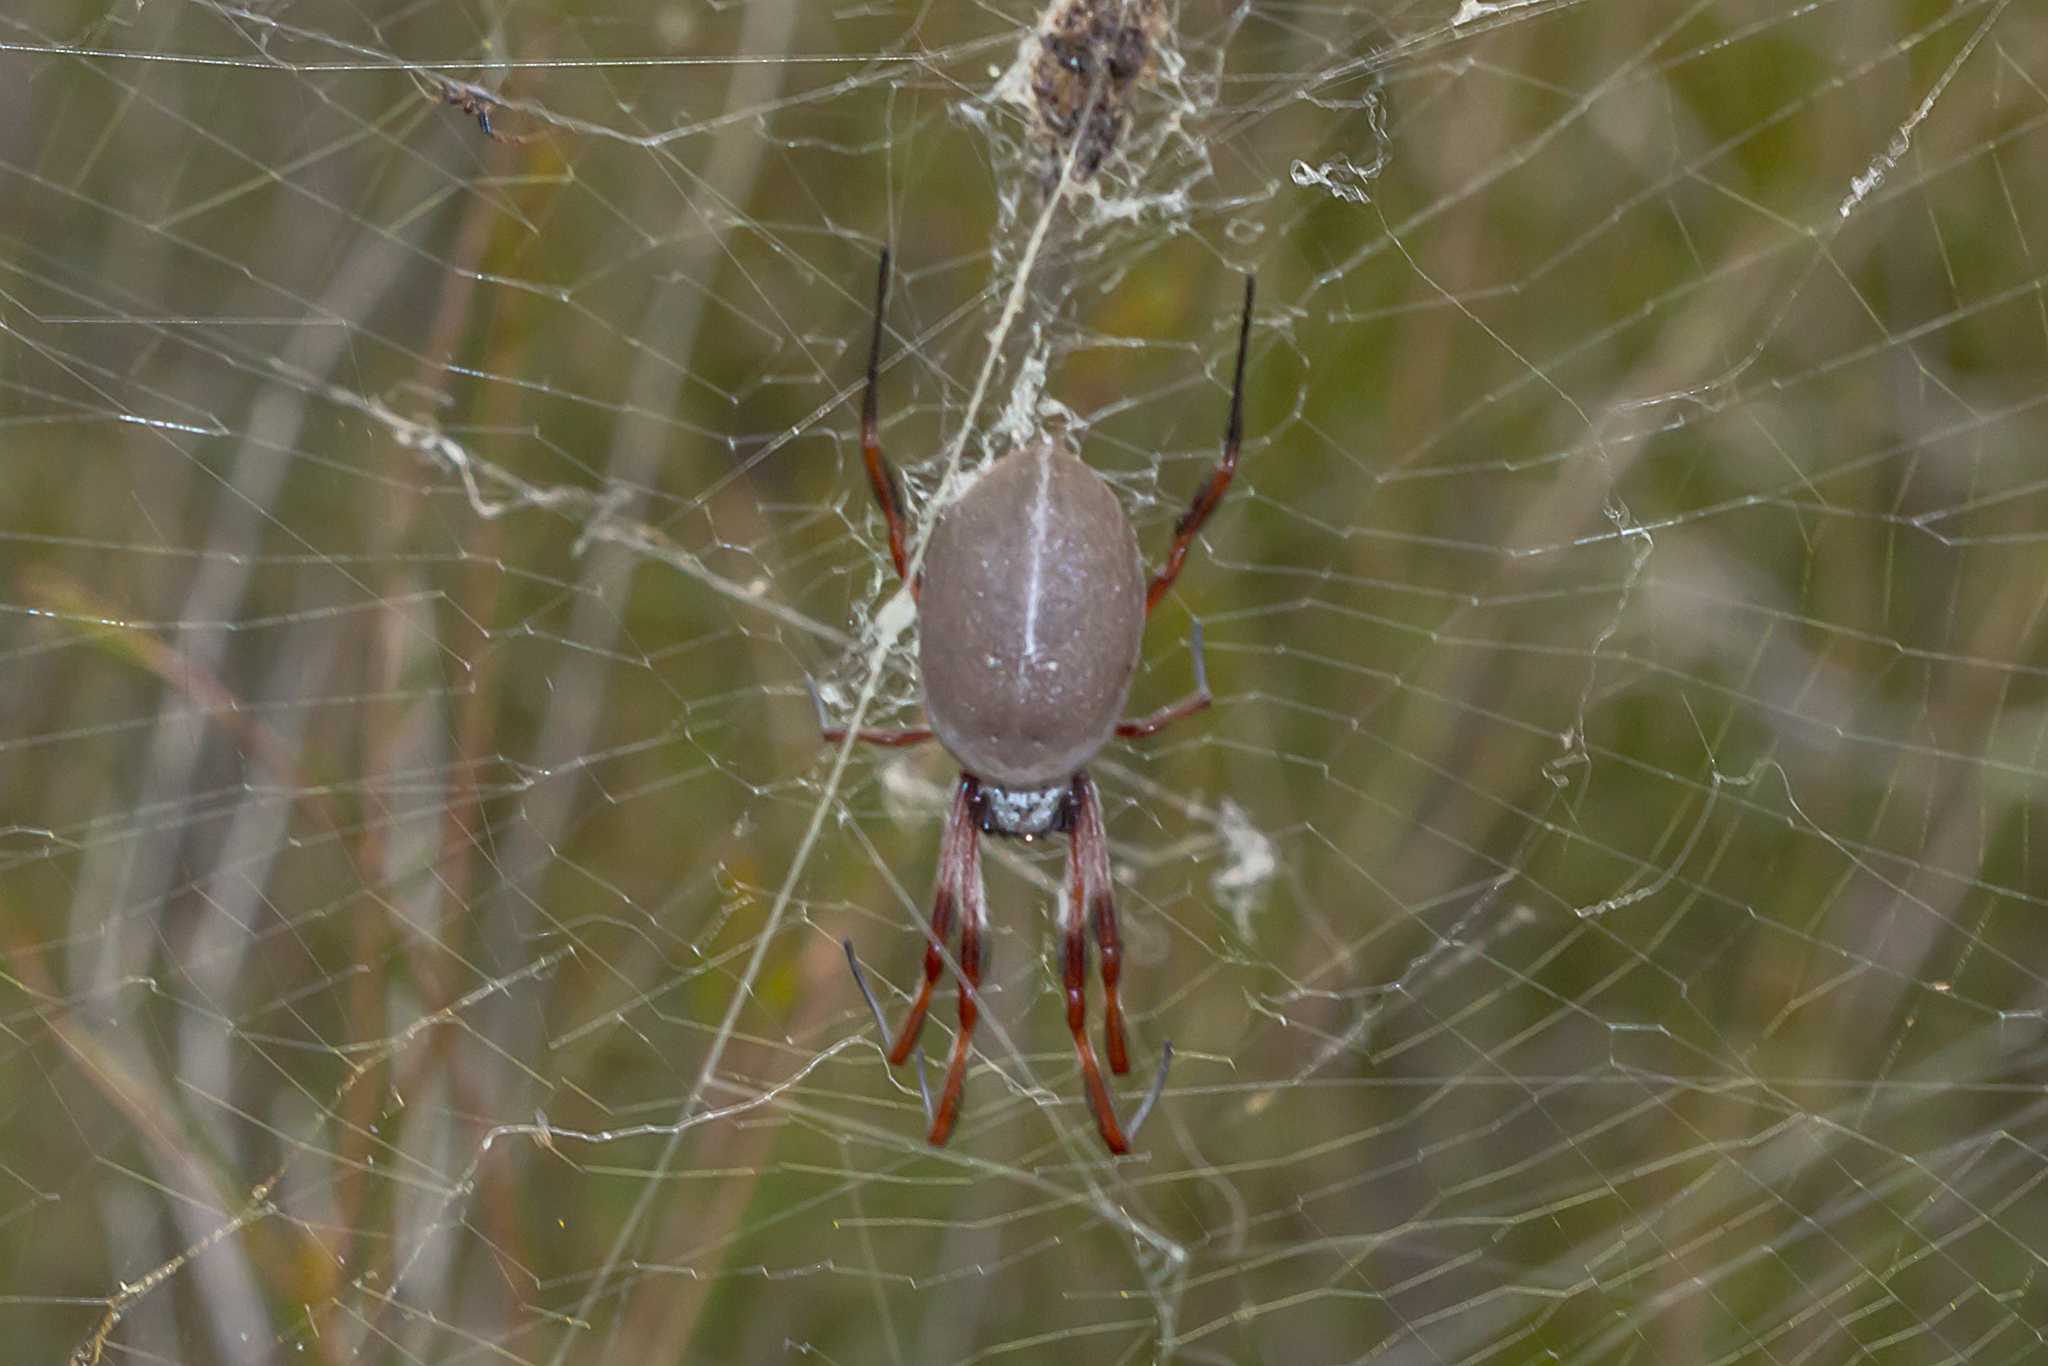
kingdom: Animalia
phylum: Arthropoda
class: Arachnida
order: Araneae
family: Araneidae
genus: Trichonephila
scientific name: Trichonephila edulis
